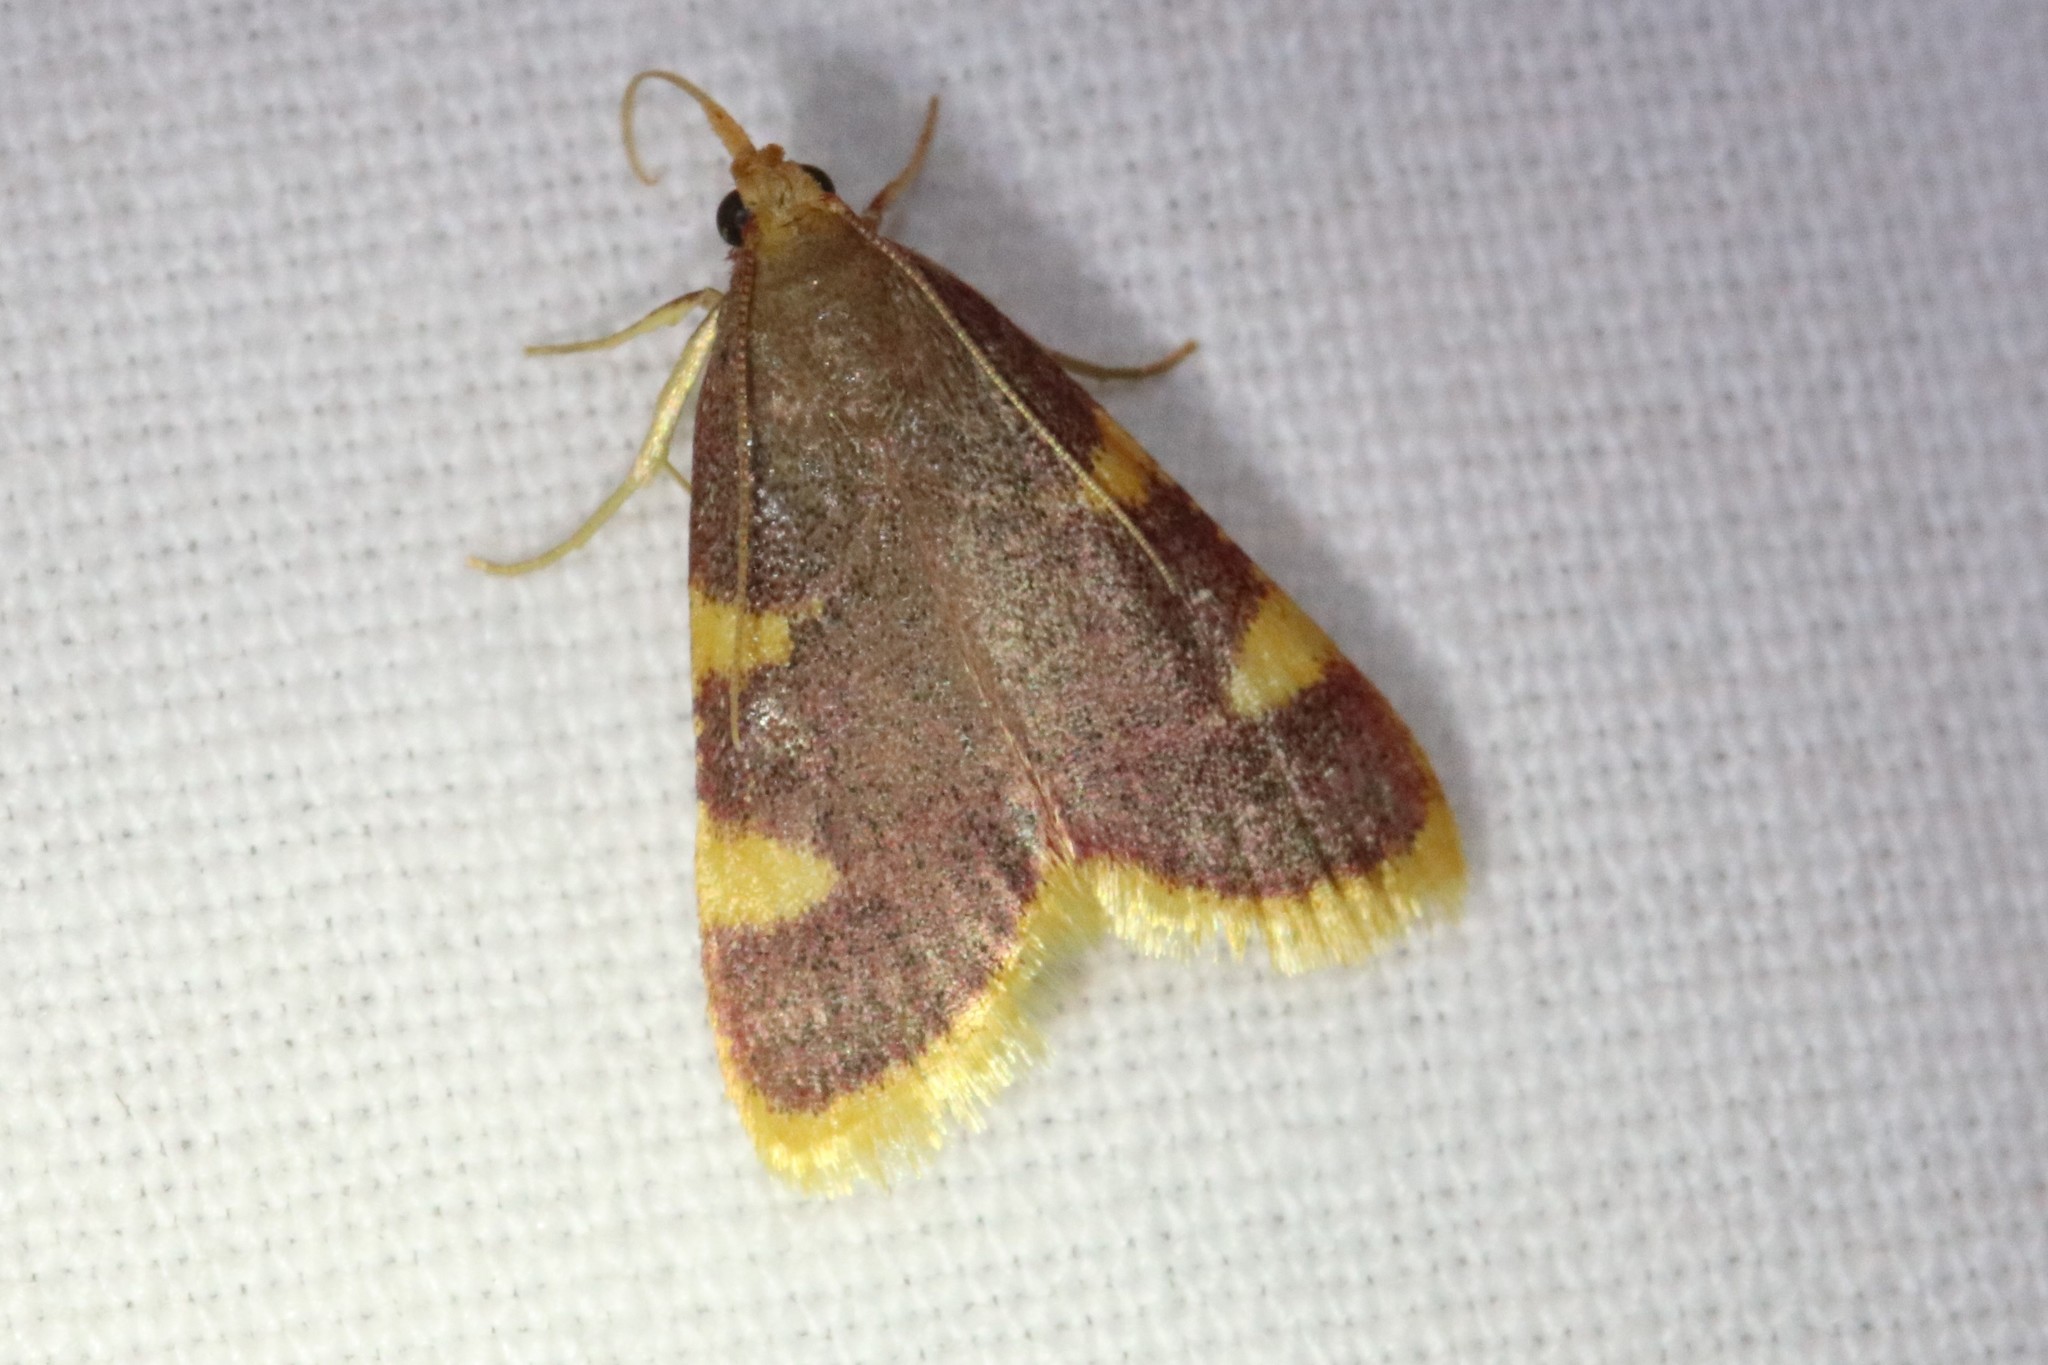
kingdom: Animalia
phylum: Arthropoda
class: Insecta
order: Lepidoptera
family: Pyralidae
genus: Hypsopygia
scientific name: Hypsopygia costalis
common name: Gold triangle
